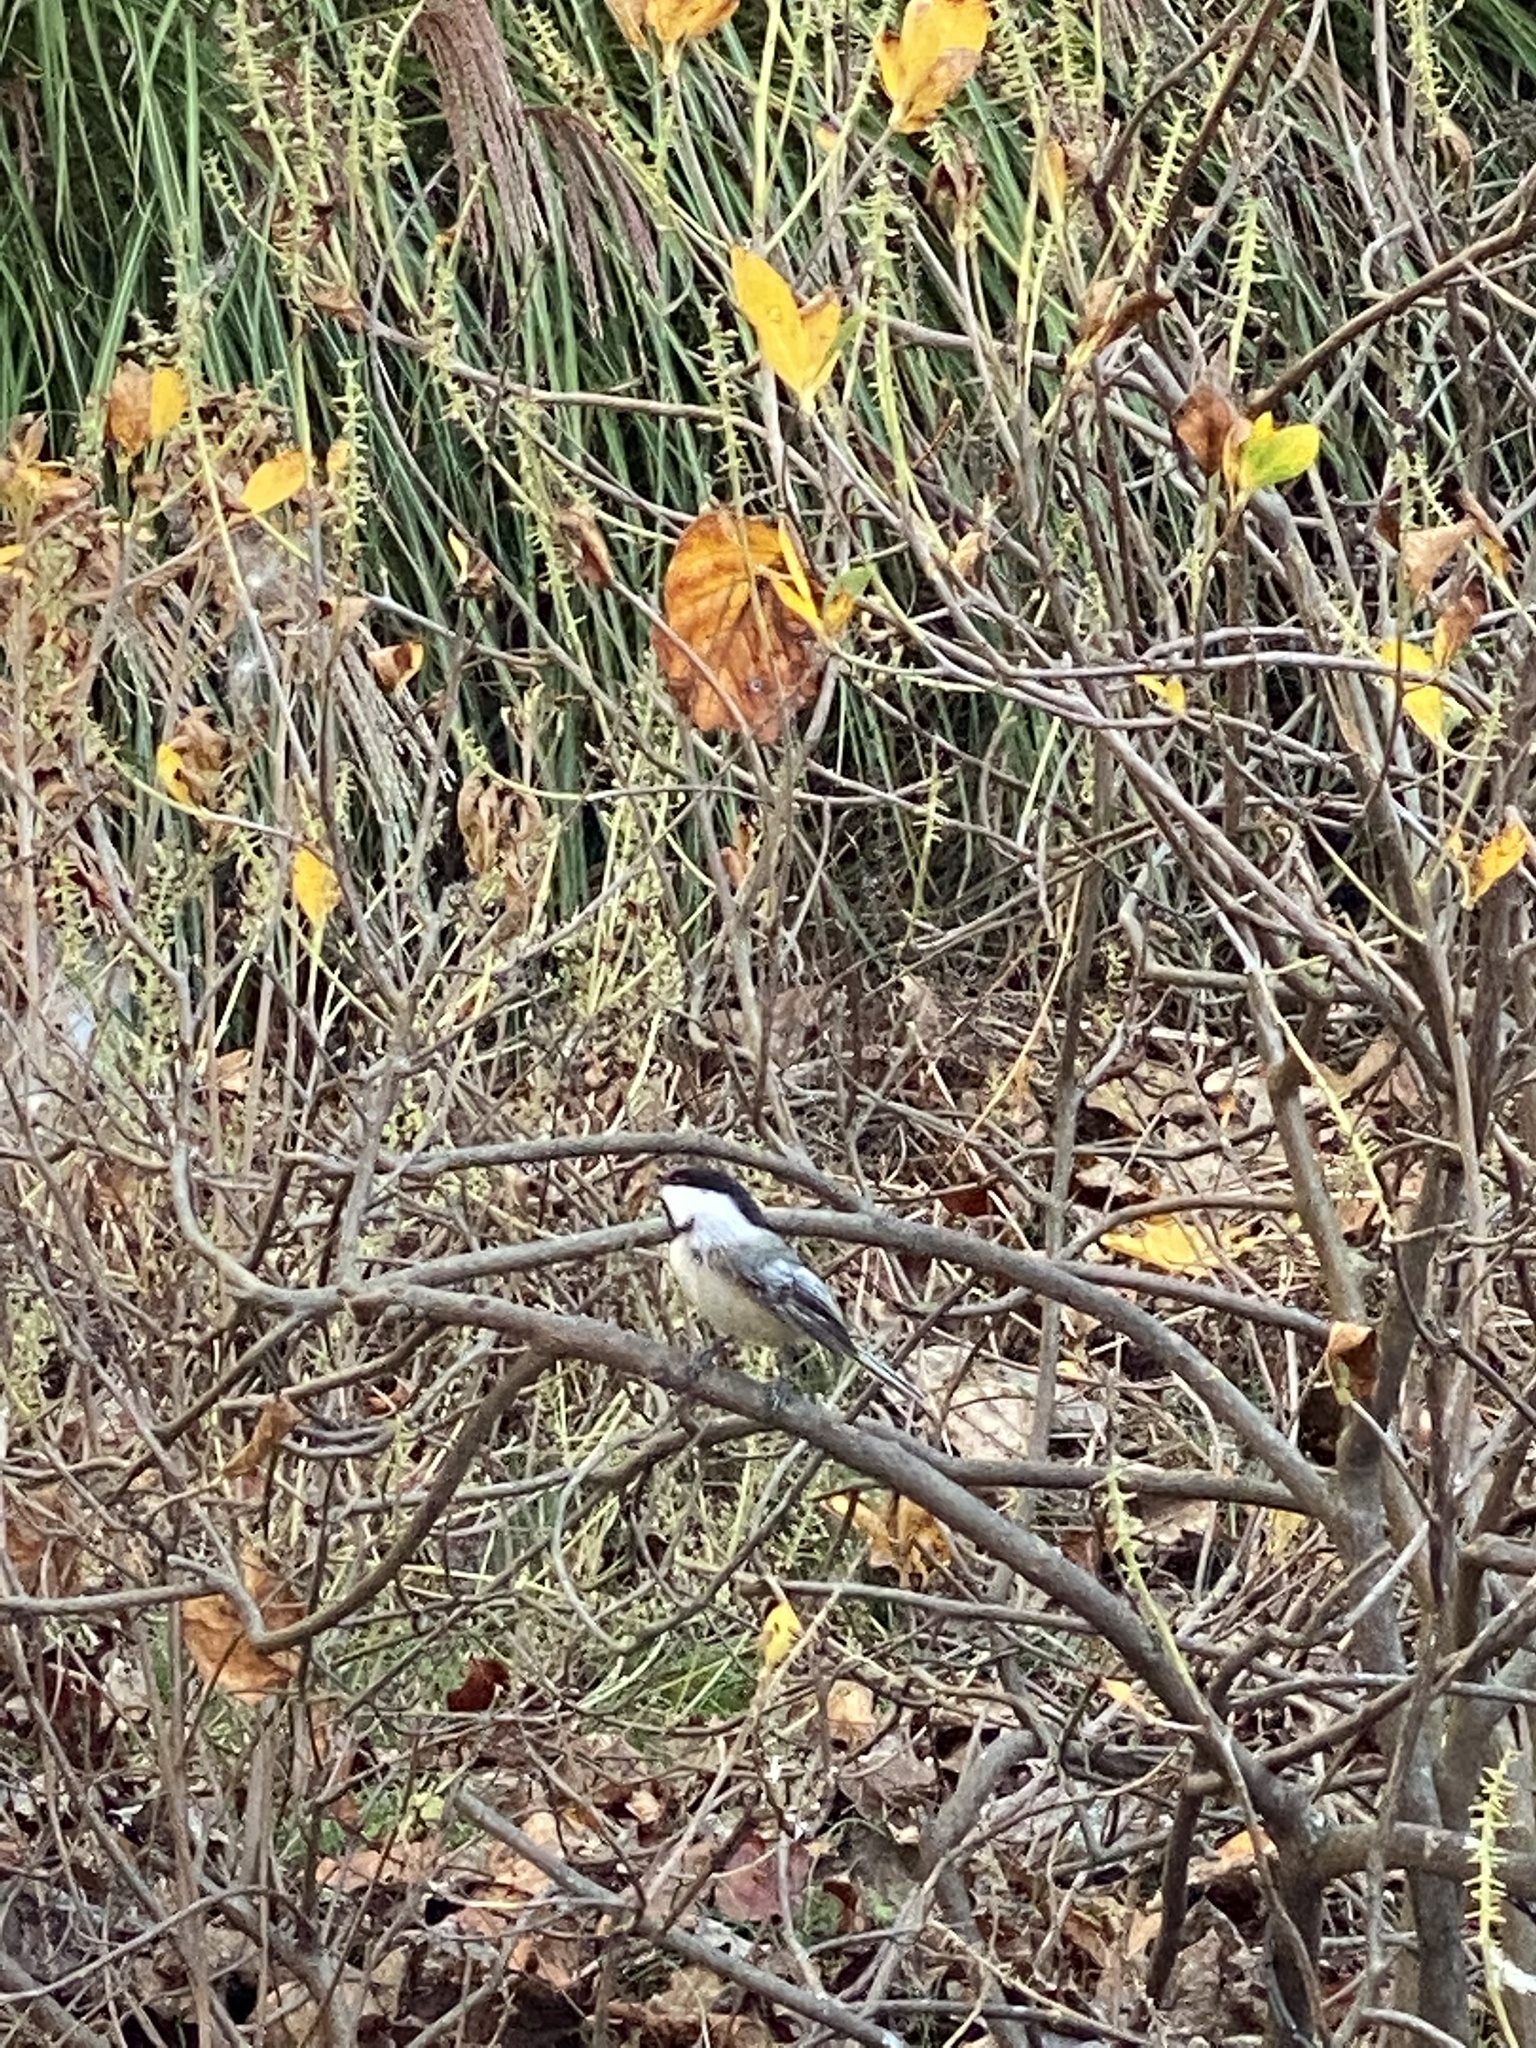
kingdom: Animalia
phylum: Chordata
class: Aves
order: Passeriformes
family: Paridae
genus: Poecile
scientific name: Poecile atricapillus
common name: Black-capped chickadee
